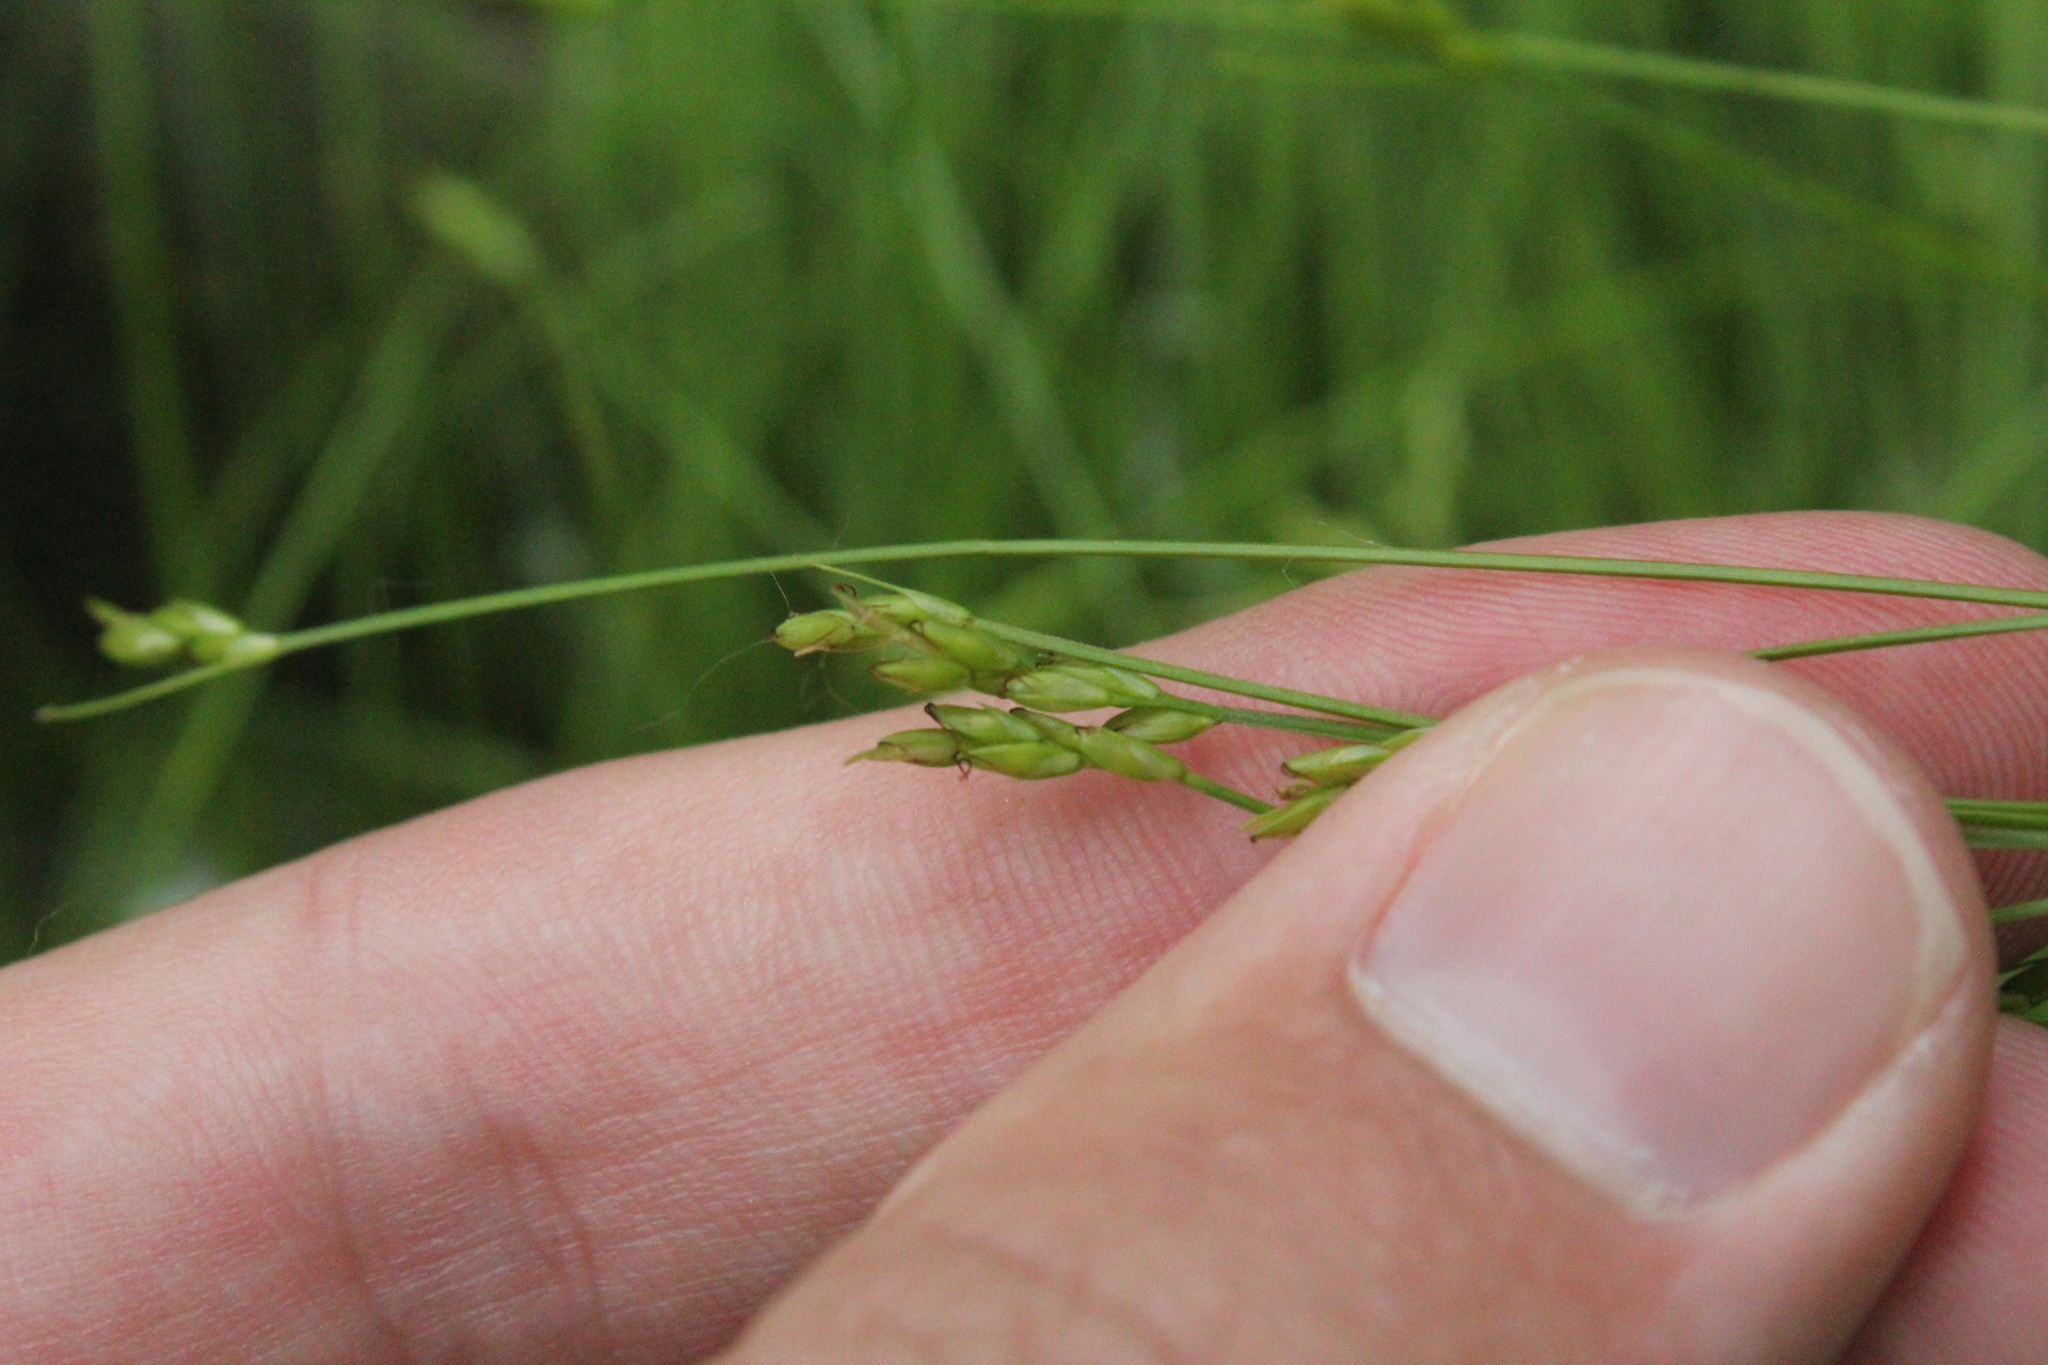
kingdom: Plantae
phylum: Tracheophyta
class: Liliopsida
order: Poales
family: Cyperaceae
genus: Carex
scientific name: Carex leptalea
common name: Bristly-stalked sedge
